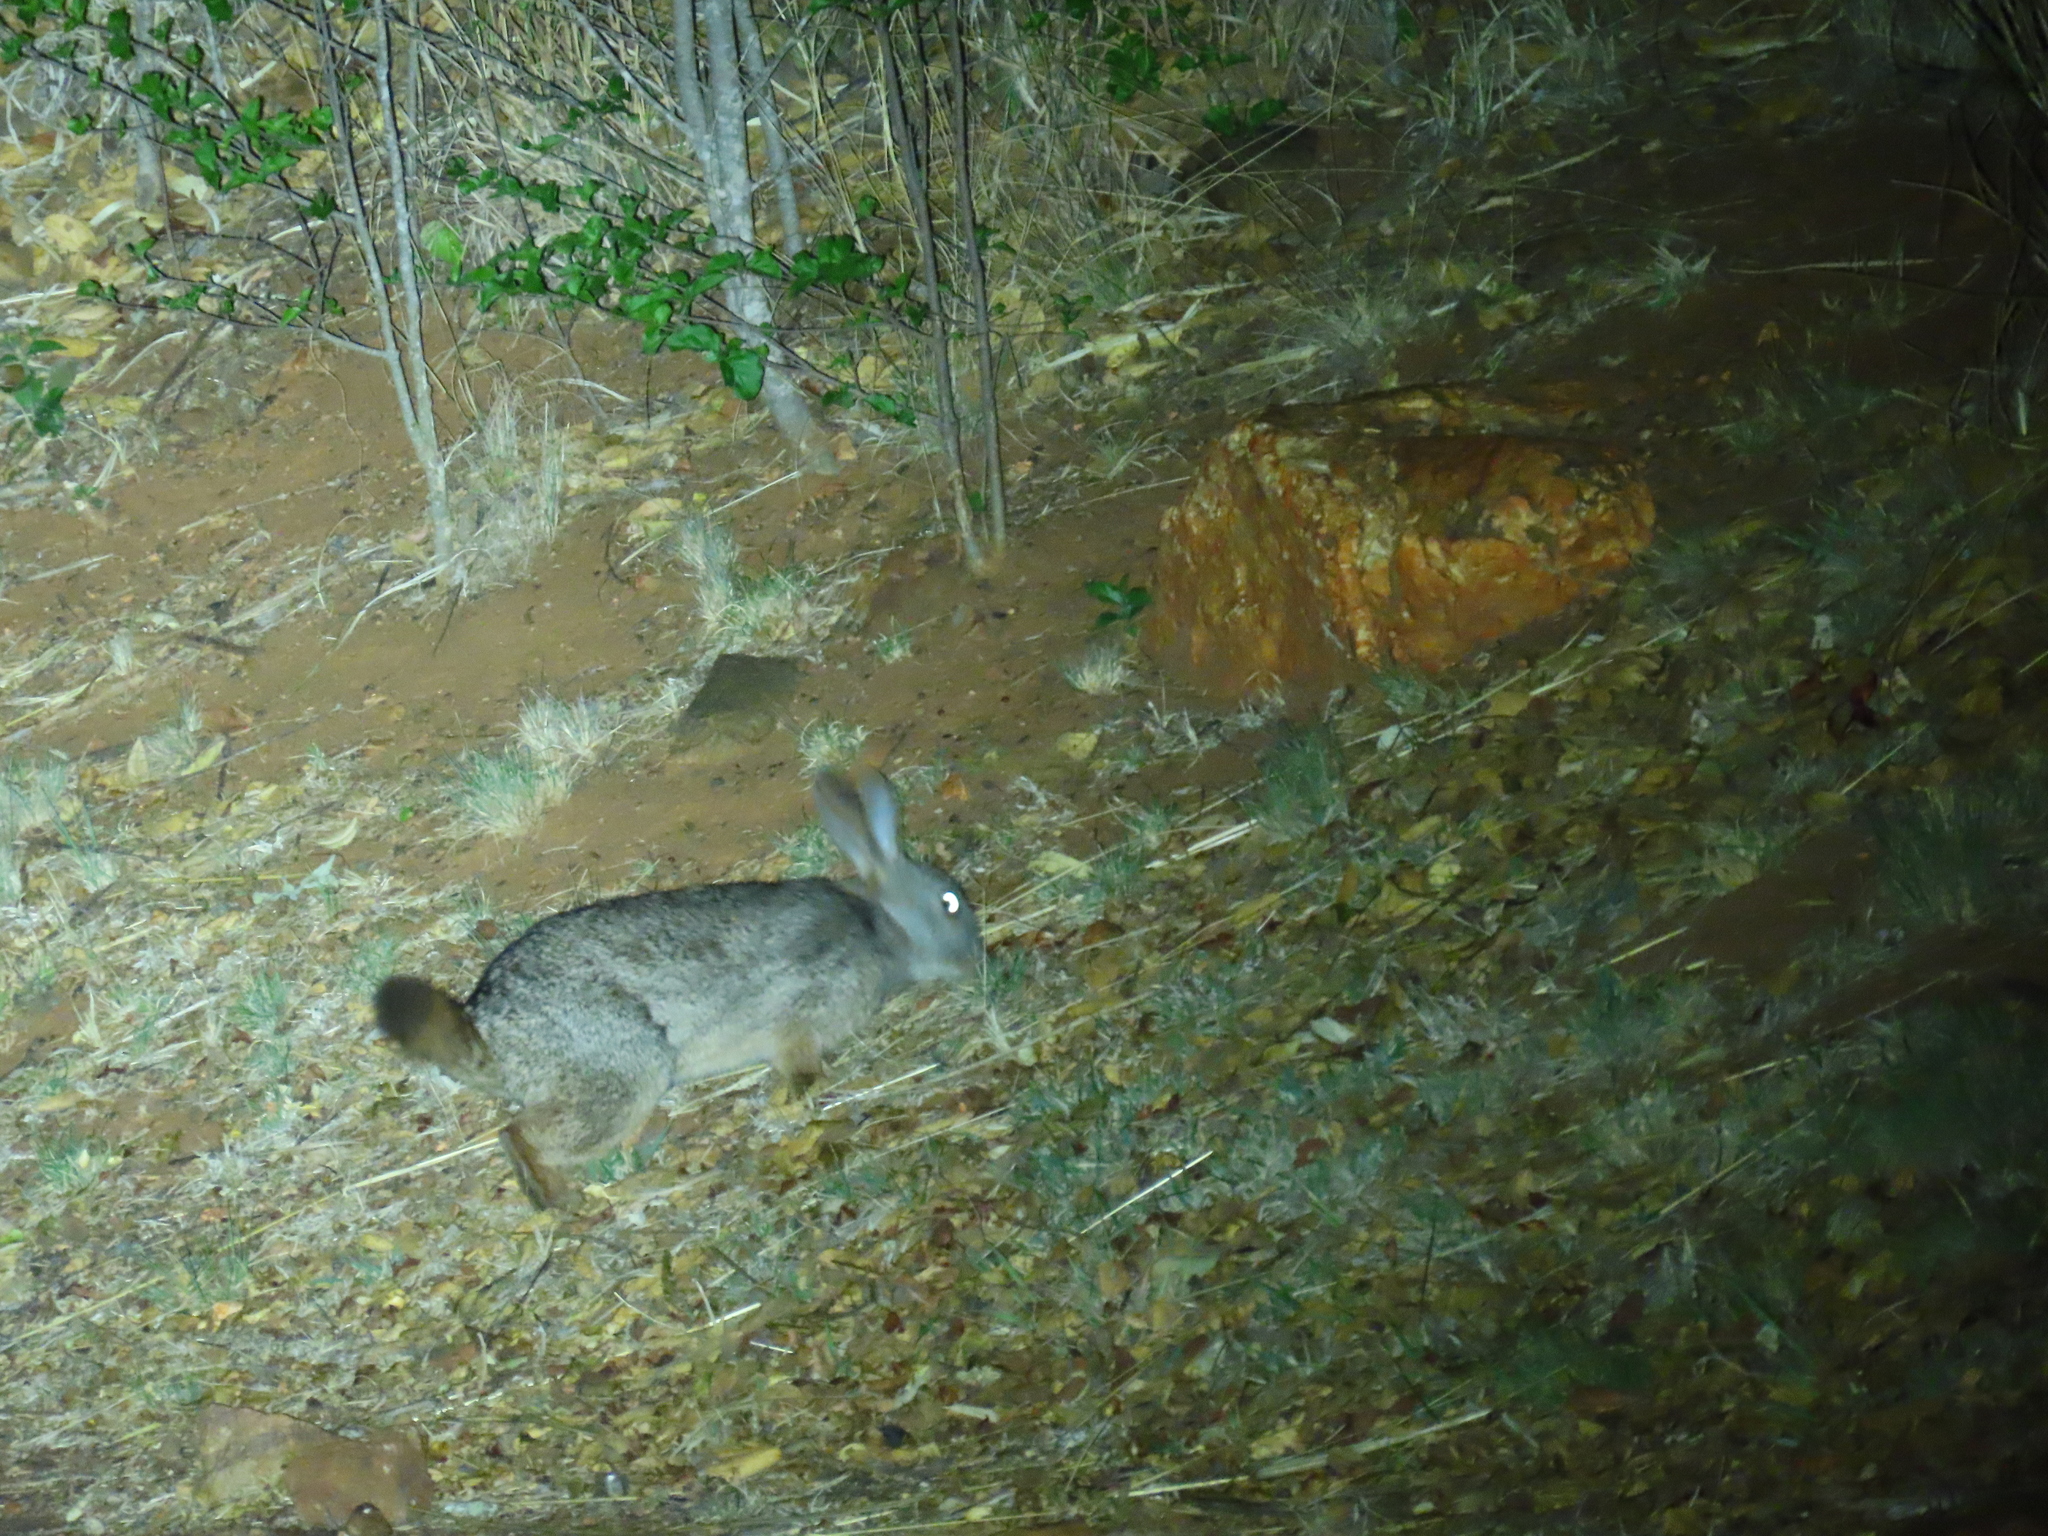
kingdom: Animalia
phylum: Chordata
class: Mammalia
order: Lagomorpha
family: Leporidae
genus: Pronolagus
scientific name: Pronolagus randensis
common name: Jameson's red rock hare
